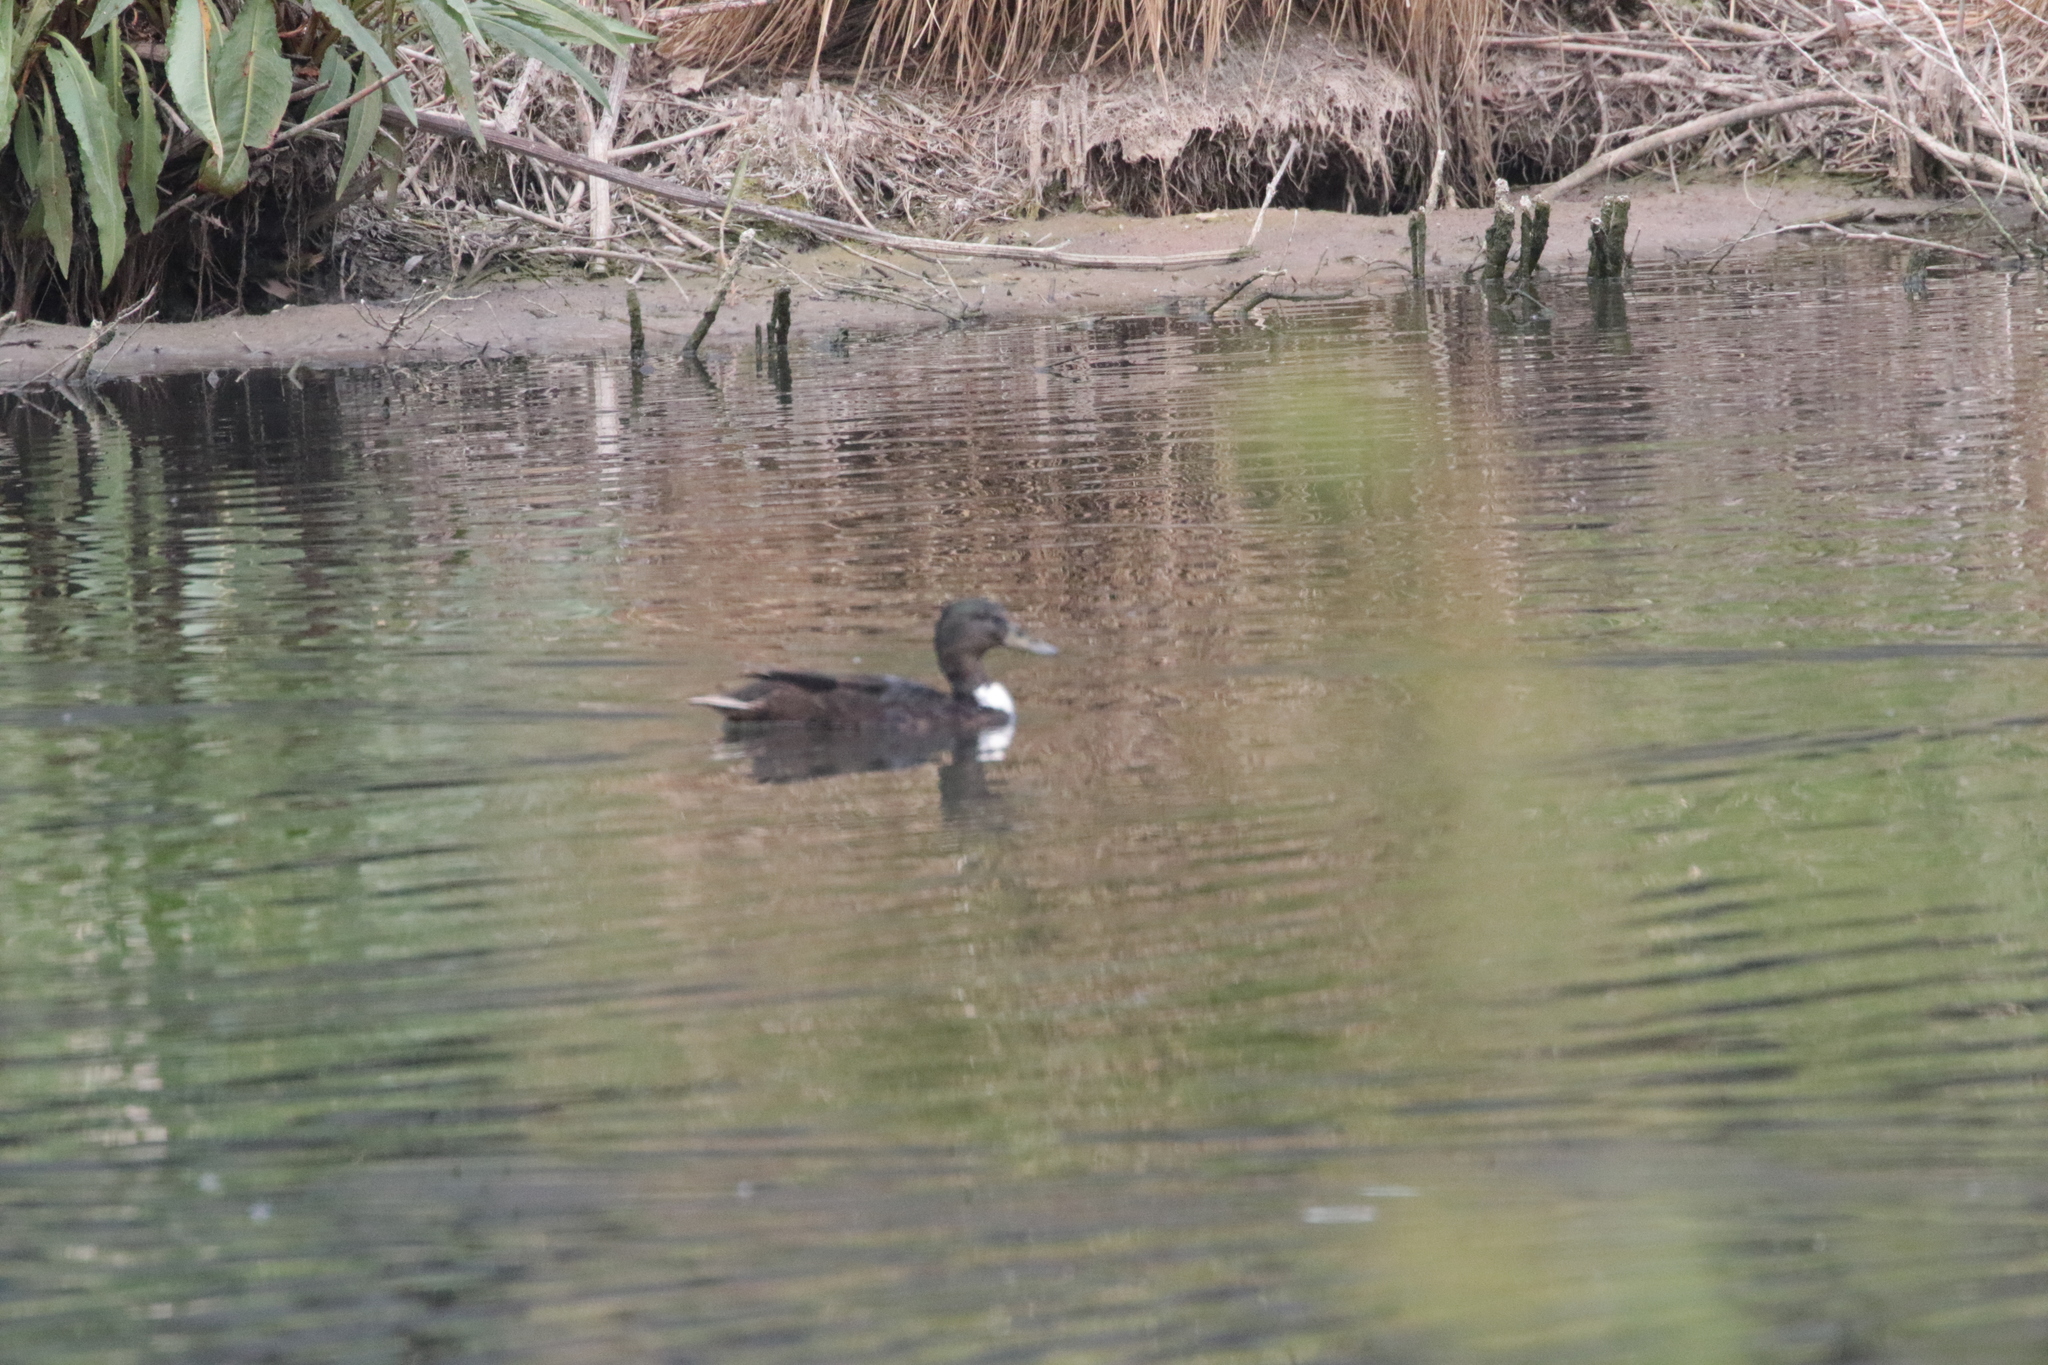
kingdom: Animalia
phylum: Chordata
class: Aves
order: Anseriformes
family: Anatidae
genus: Anas
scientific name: Anas platyrhynchos
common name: Mallard
